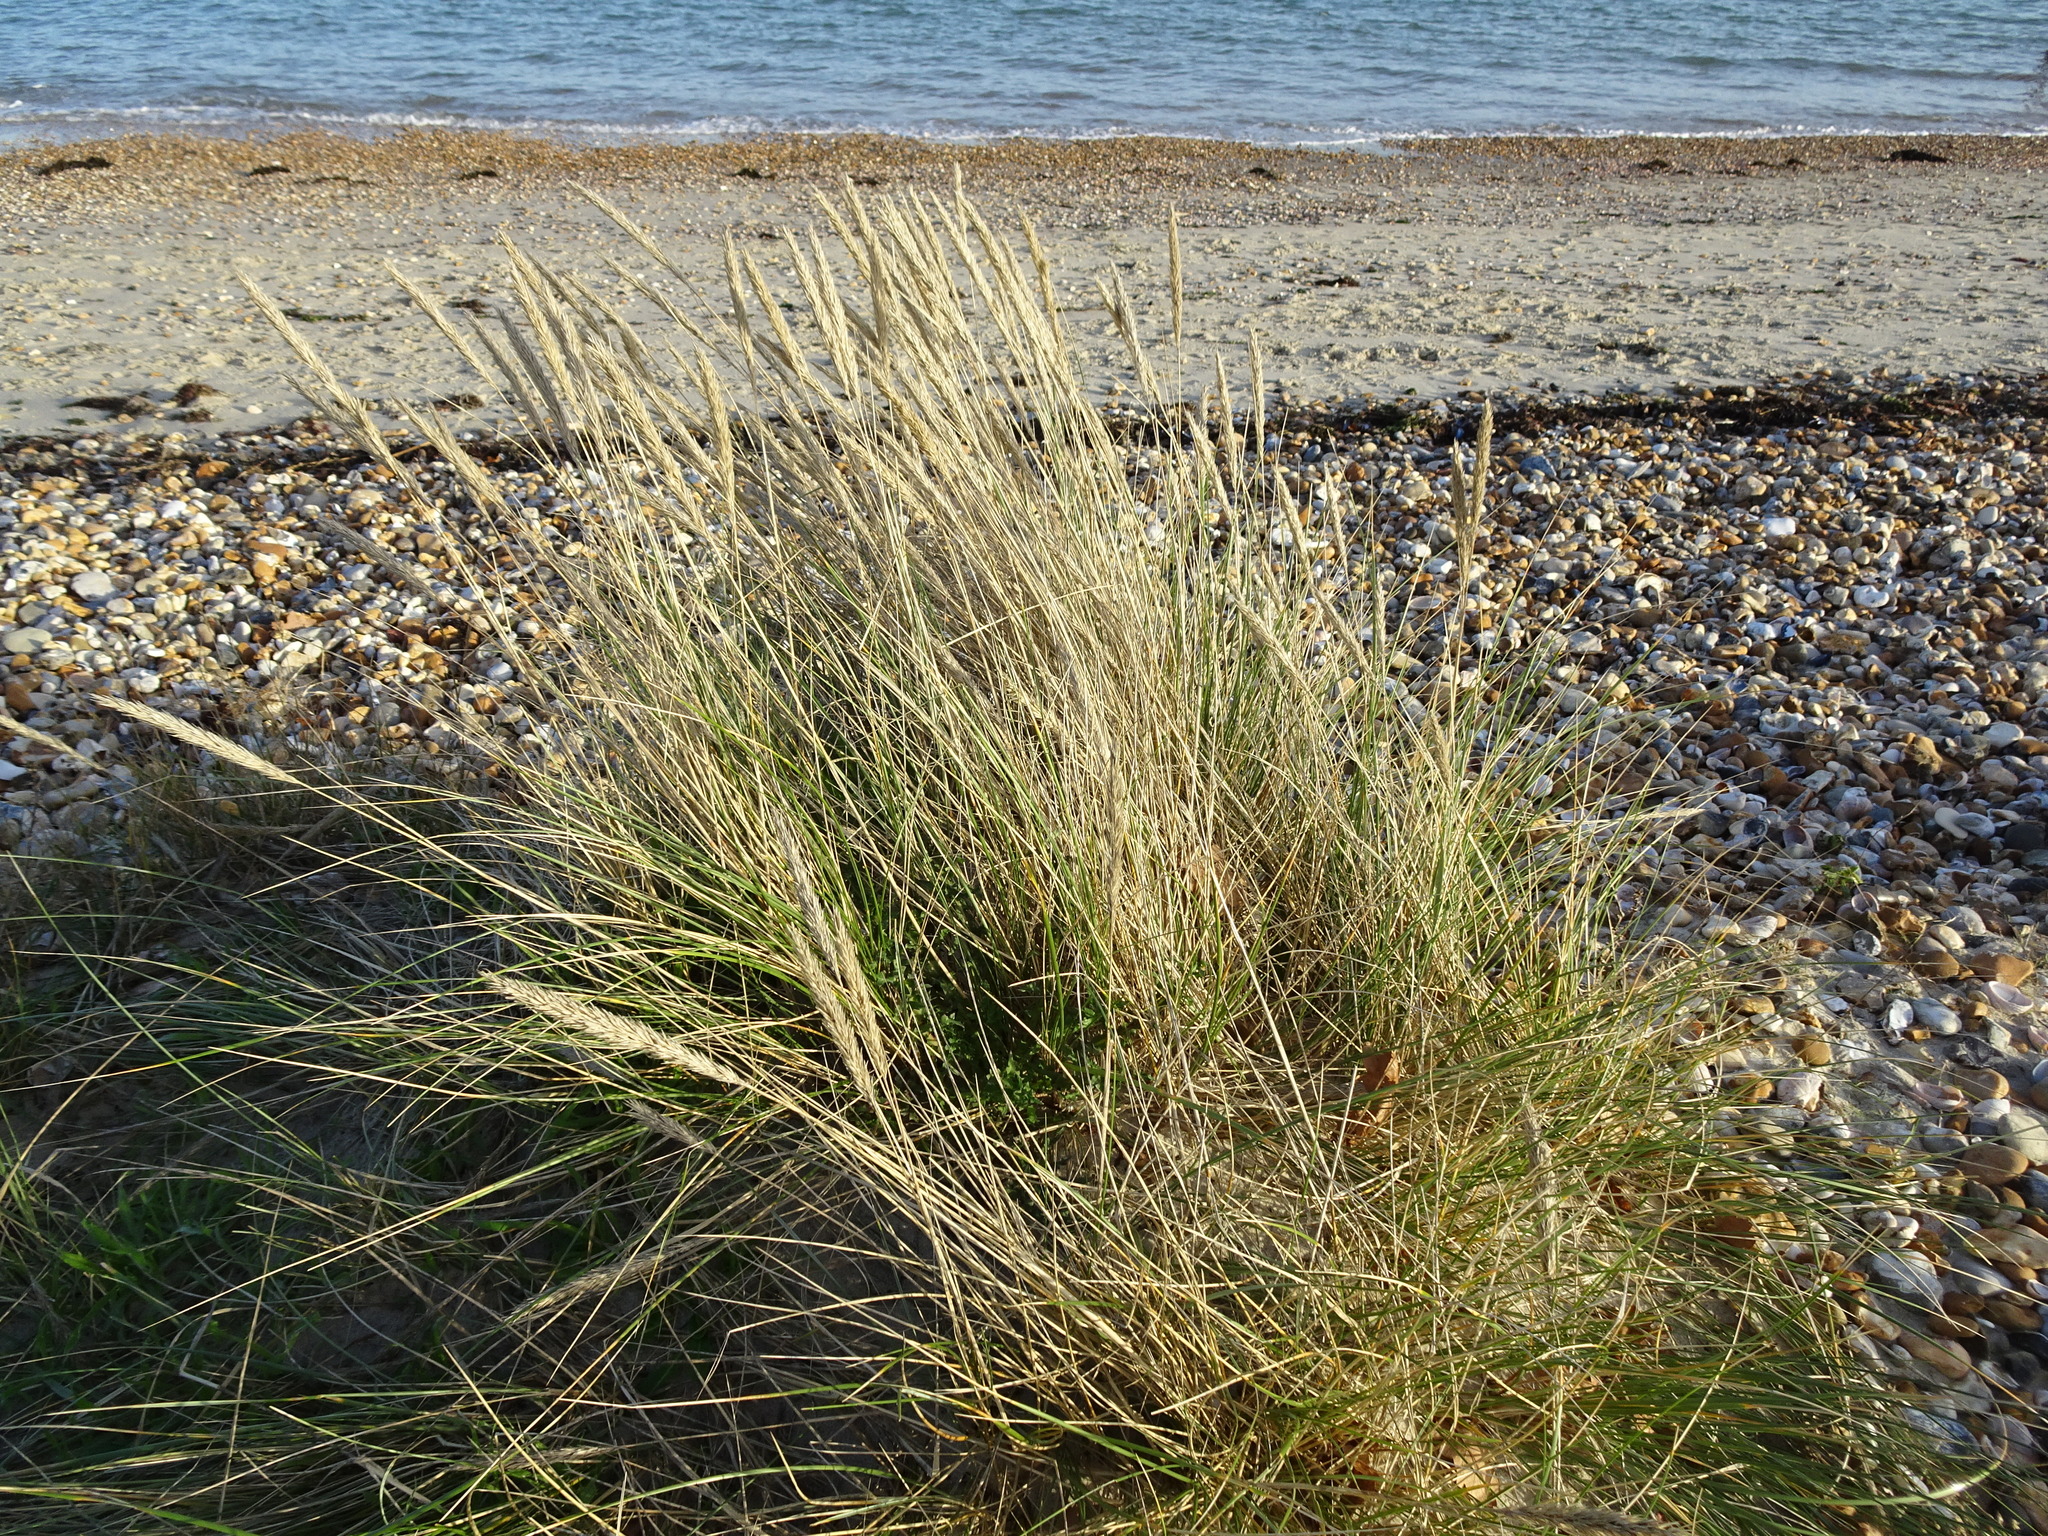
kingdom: Plantae
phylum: Tracheophyta
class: Liliopsida
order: Poales
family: Poaceae
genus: Calamagrostis
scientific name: Calamagrostis arenaria
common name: European beachgrass
